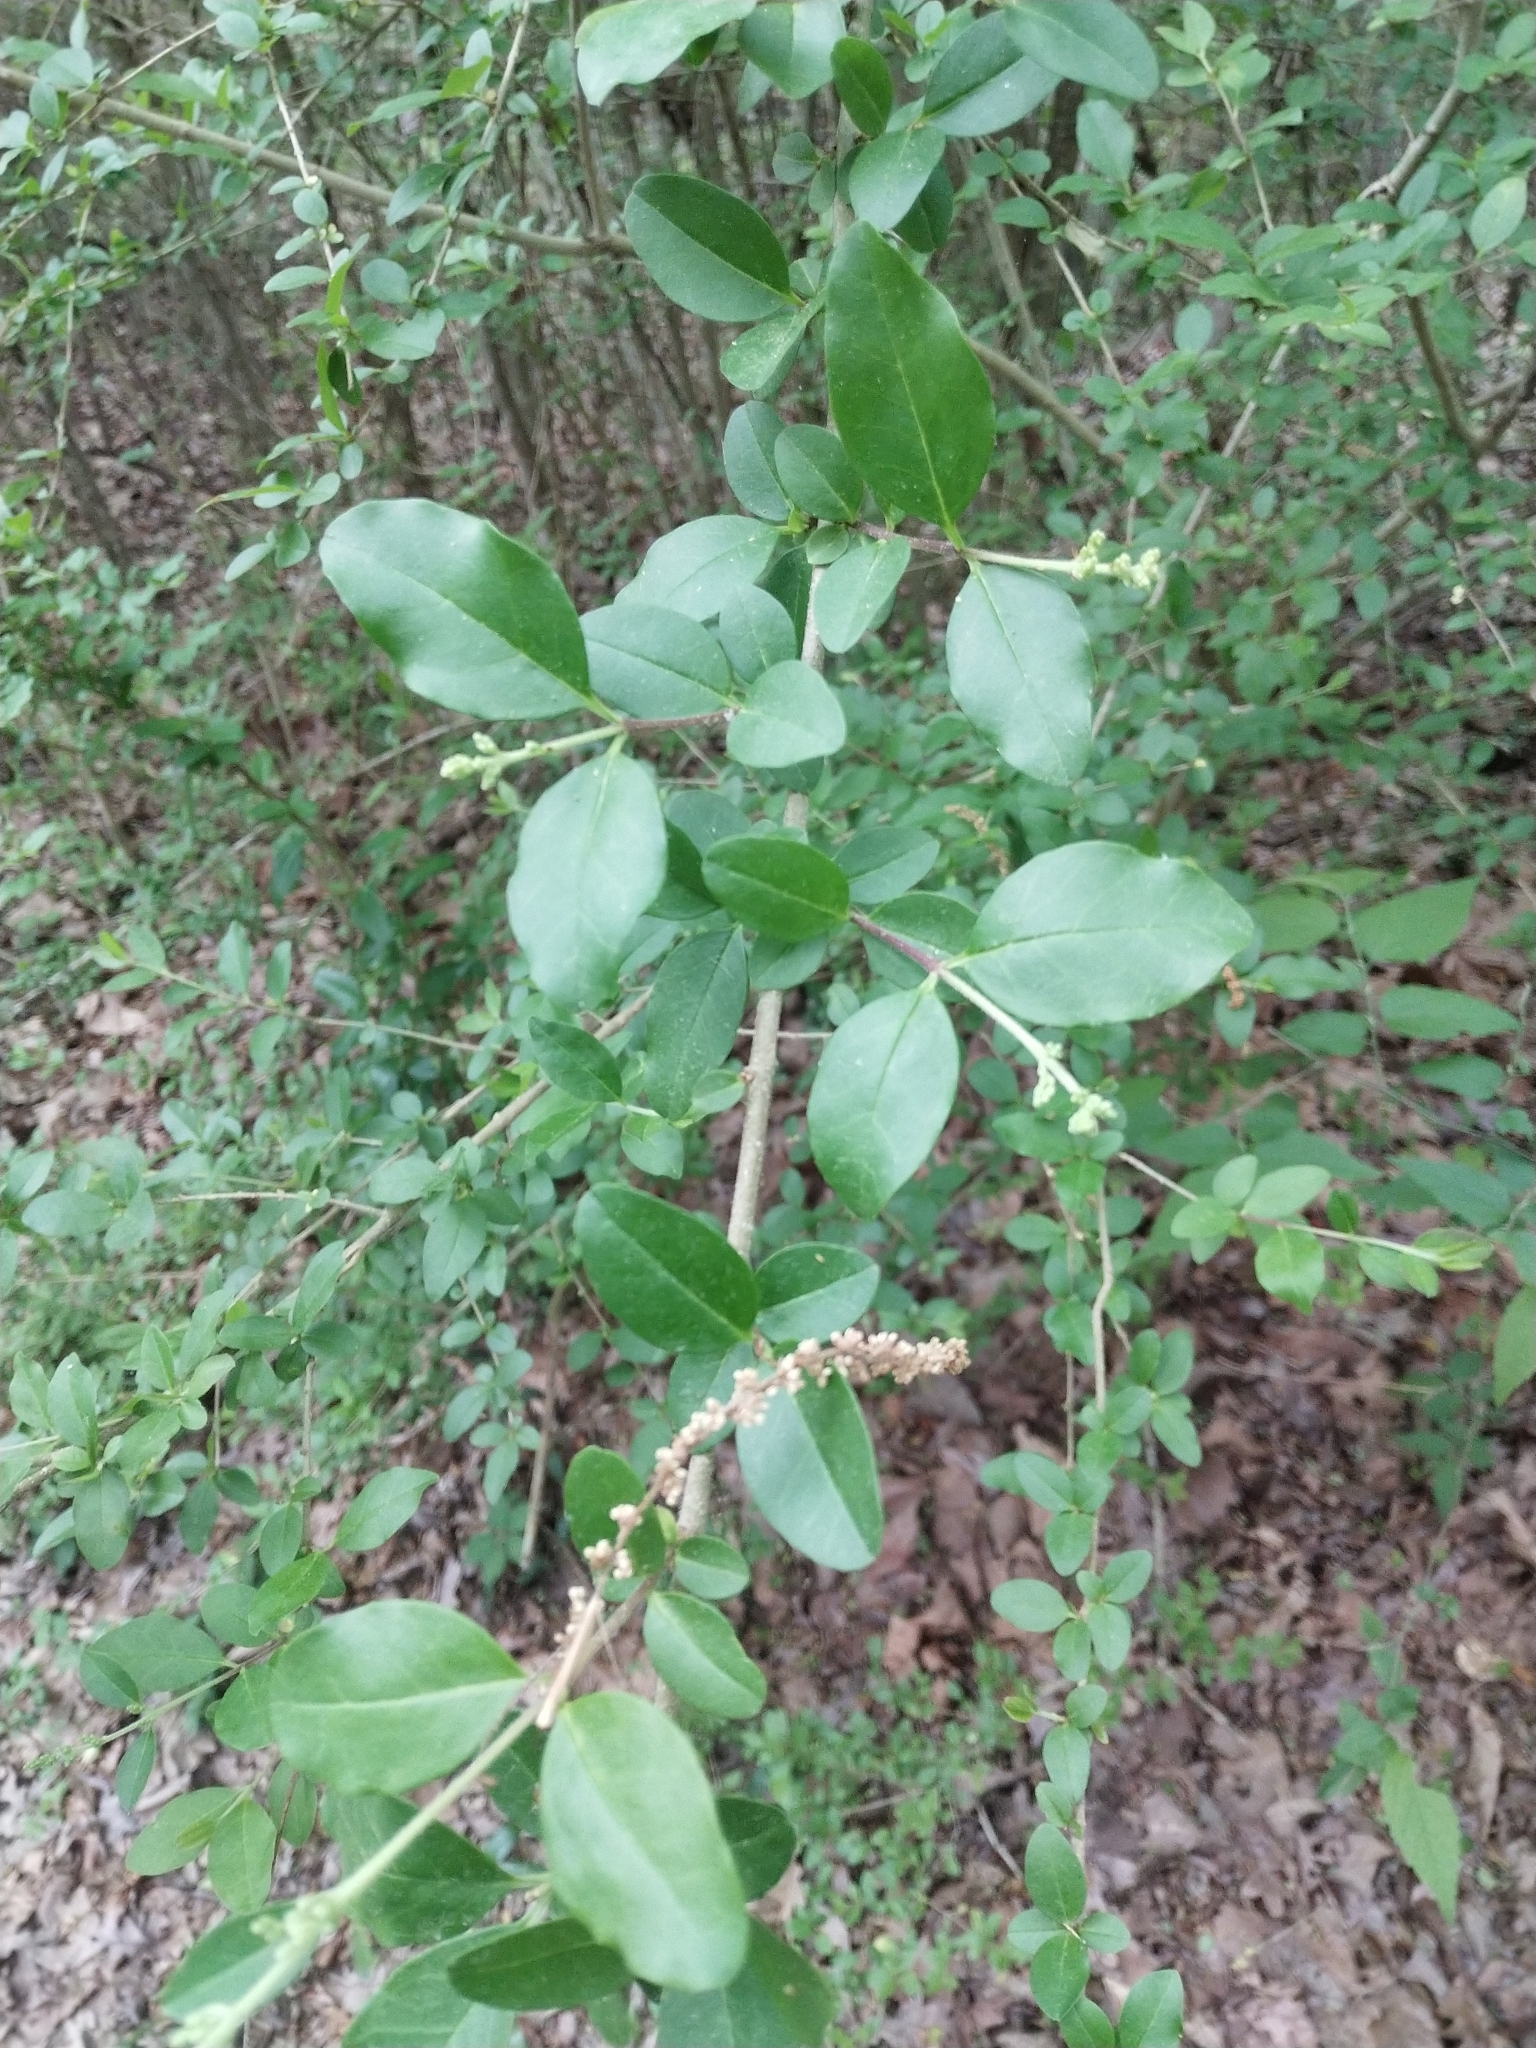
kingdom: Plantae
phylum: Tracheophyta
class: Magnoliopsida
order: Lamiales
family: Oleaceae
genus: Ligustrum
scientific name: Ligustrum sinense
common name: Chinese privet
